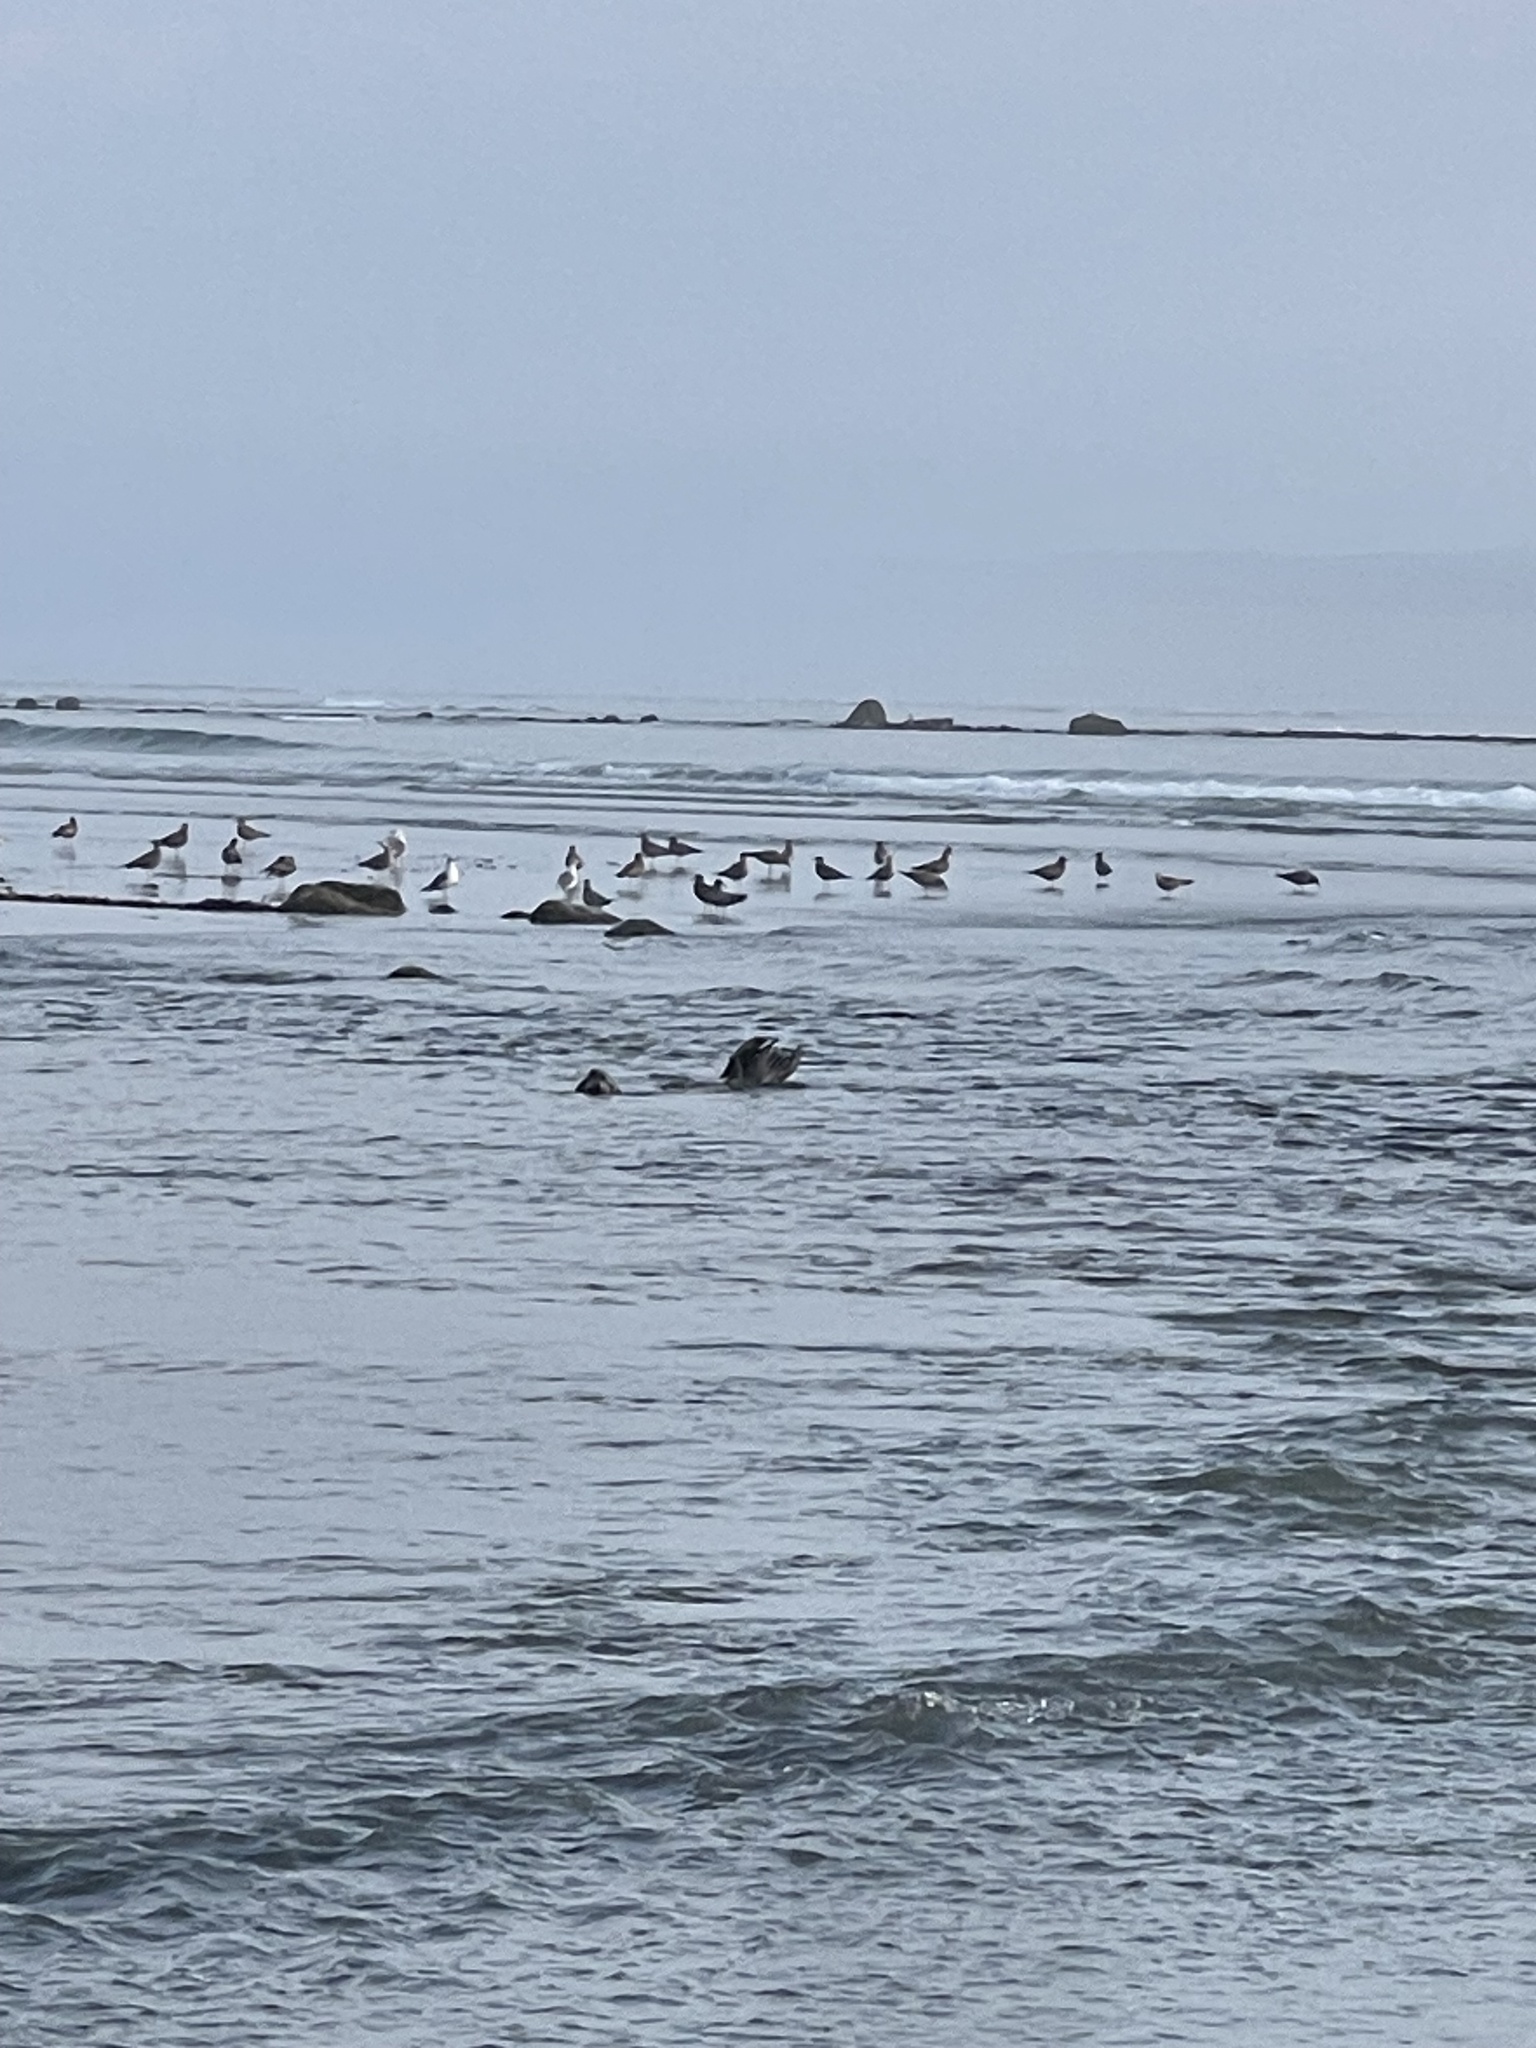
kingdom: Animalia
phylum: Chordata
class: Mammalia
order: Carnivora
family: Otariidae
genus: Zalophus
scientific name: Zalophus californianus
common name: California sea lion
